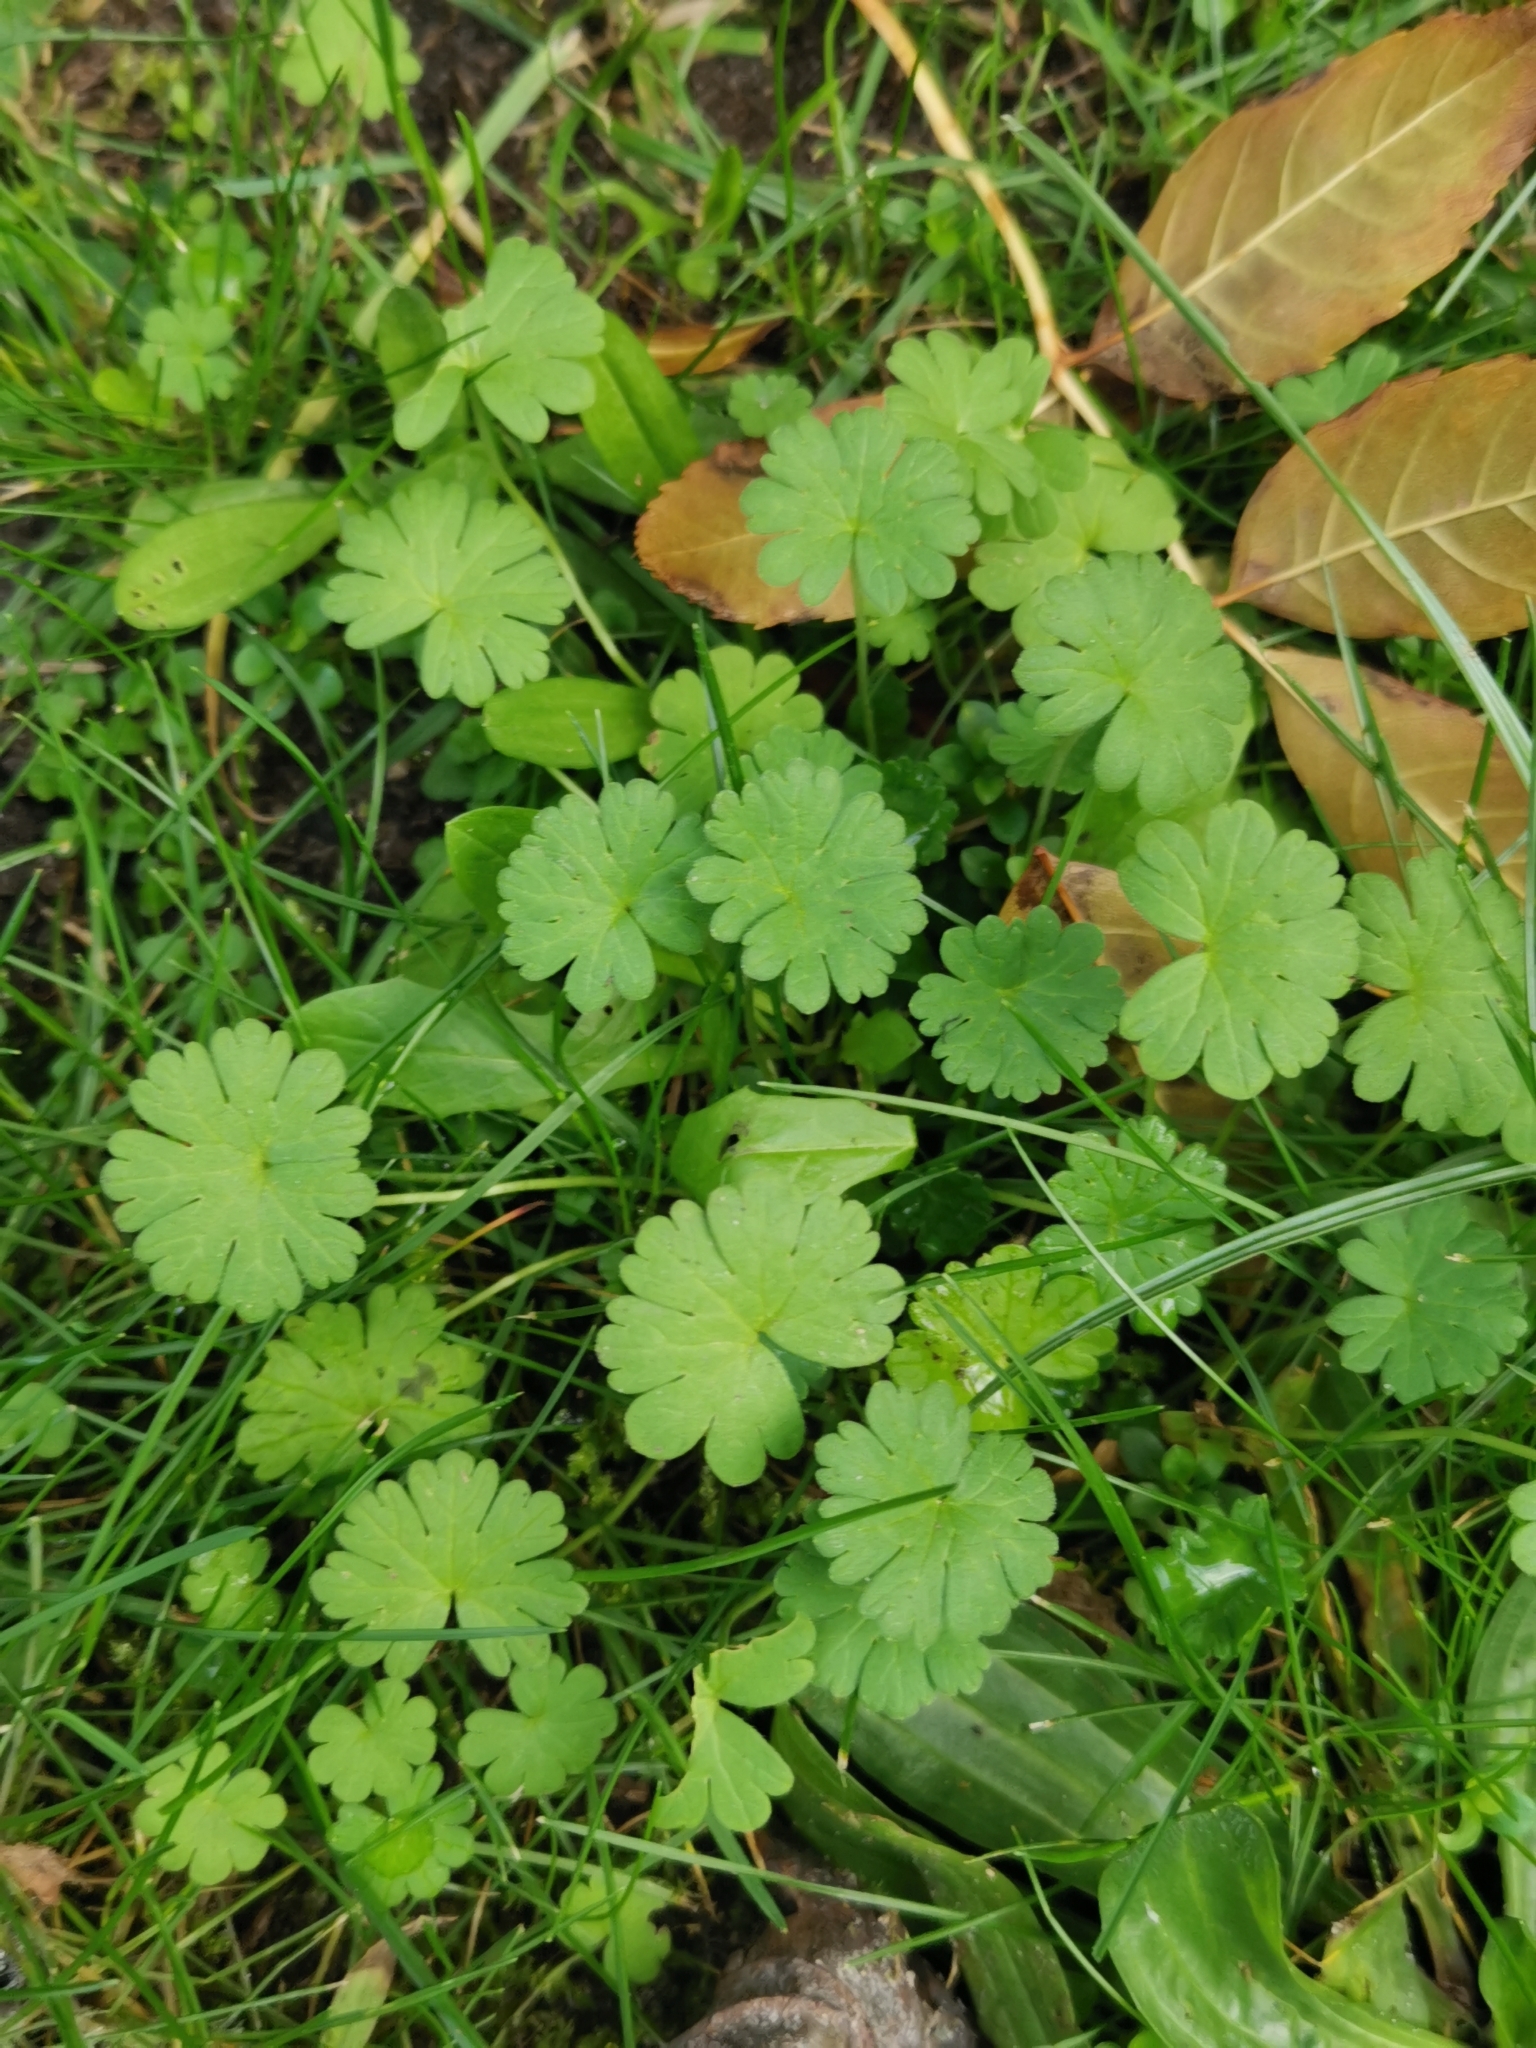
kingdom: Plantae
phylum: Tracheophyta
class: Magnoliopsida
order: Geraniales
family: Geraniaceae
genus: Geranium
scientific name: Geranium pusillum
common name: Small geranium
